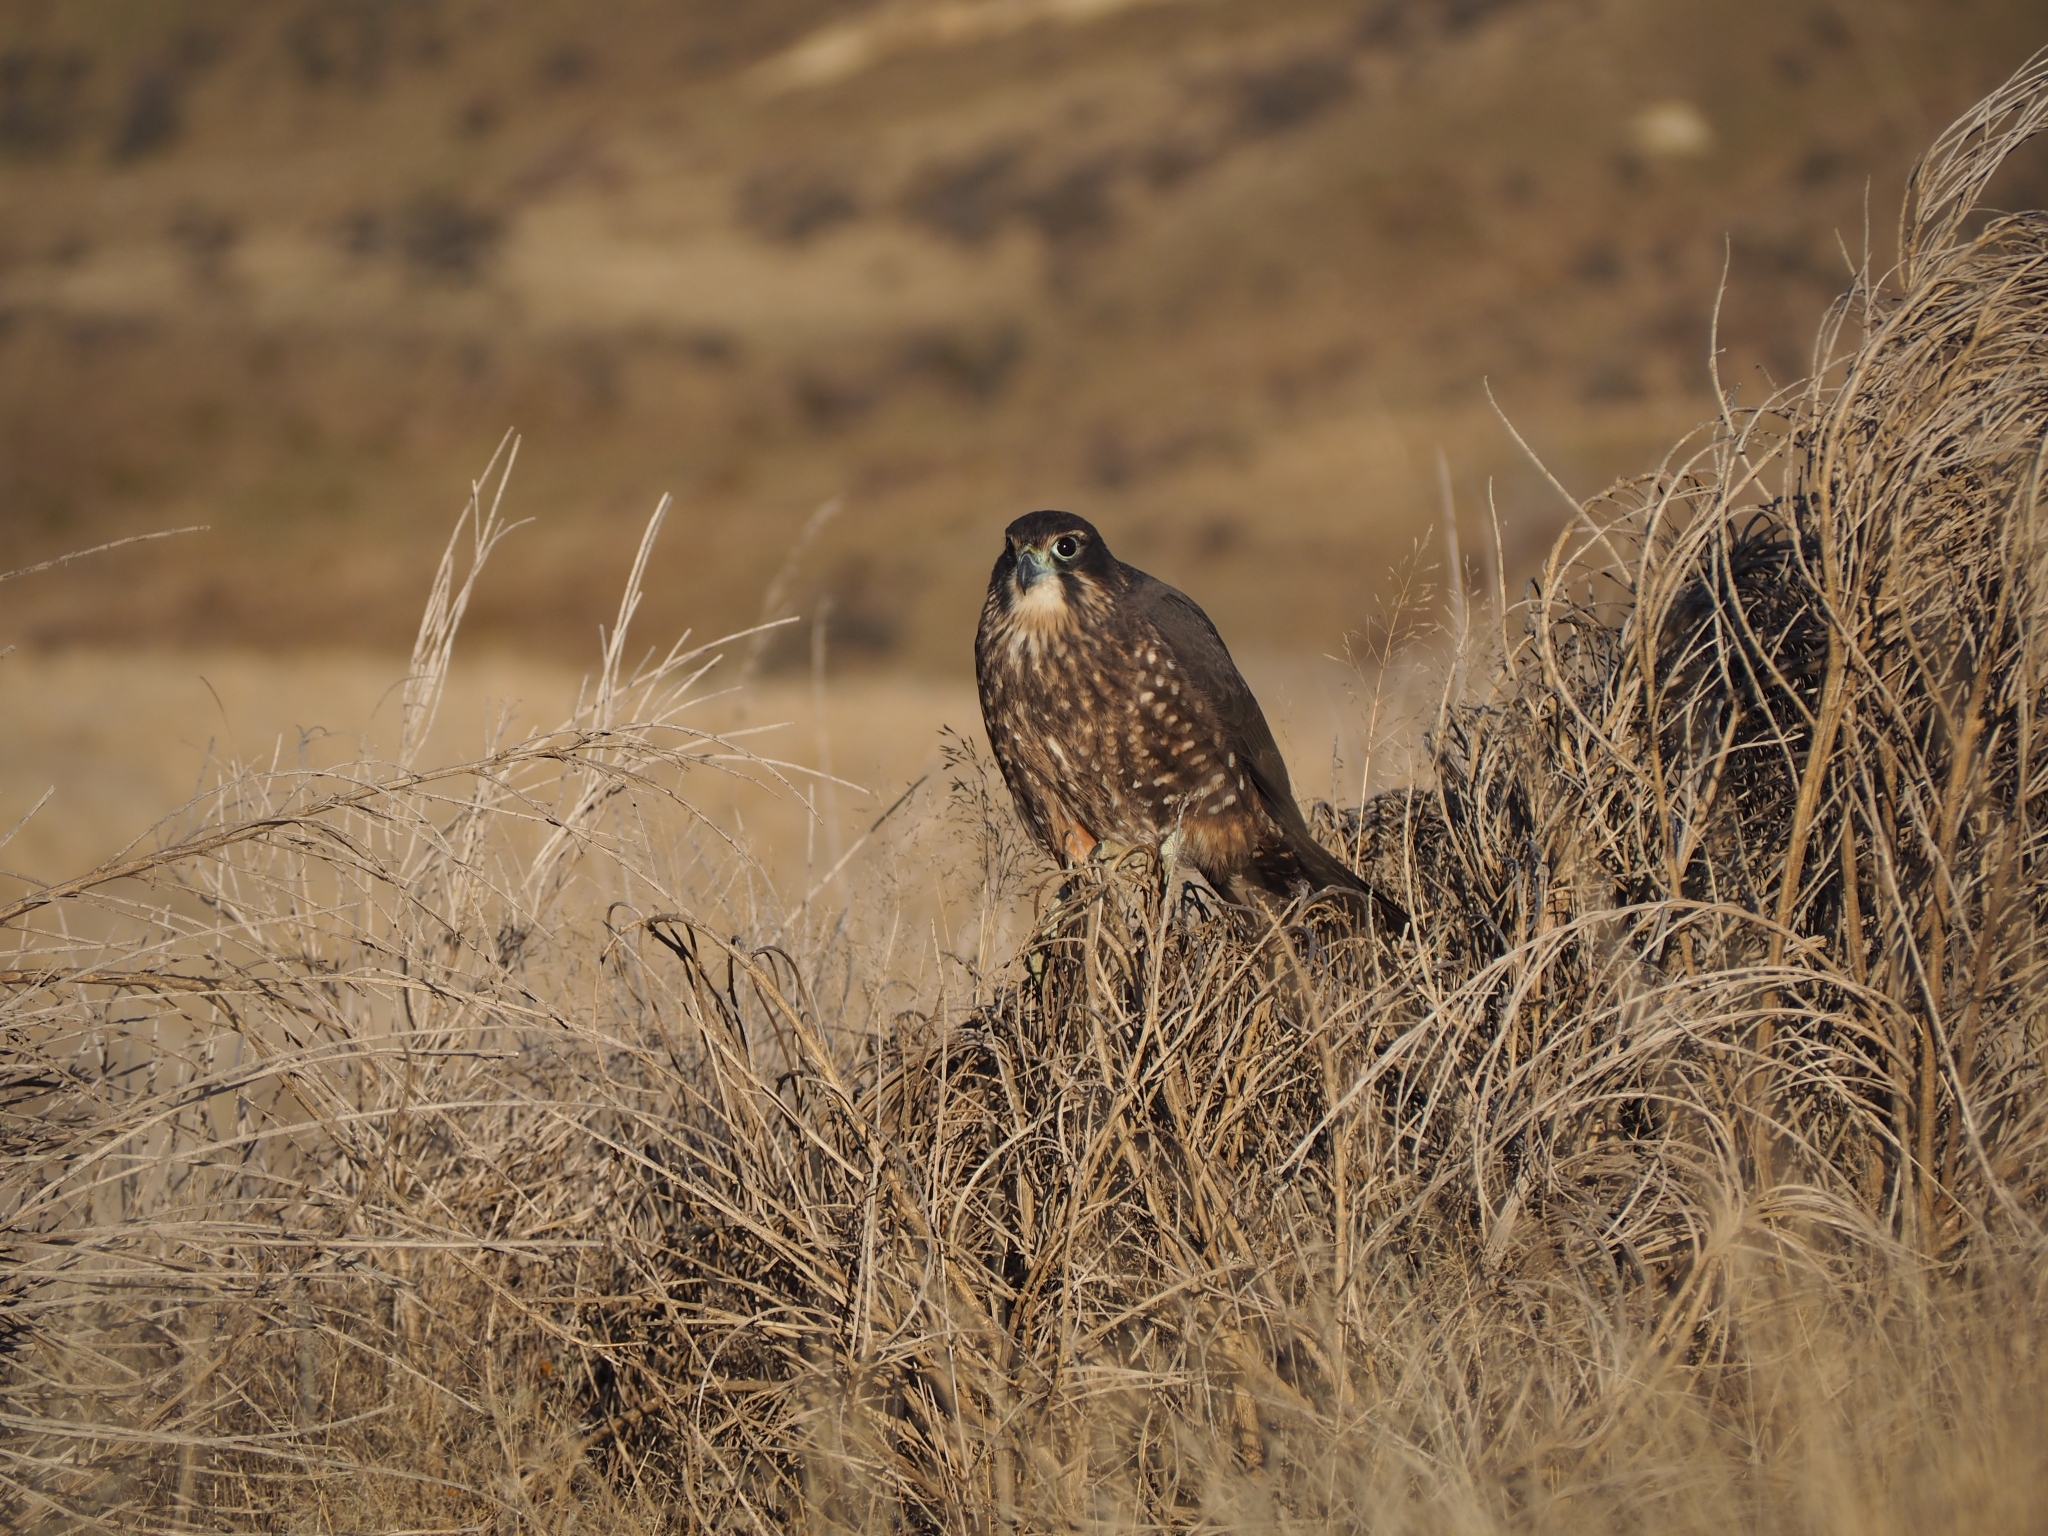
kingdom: Animalia
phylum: Chordata
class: Aves
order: Falconiformes
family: Falconidae
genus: Falco
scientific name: Falco novaeseelandiae
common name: New zealand falcon
